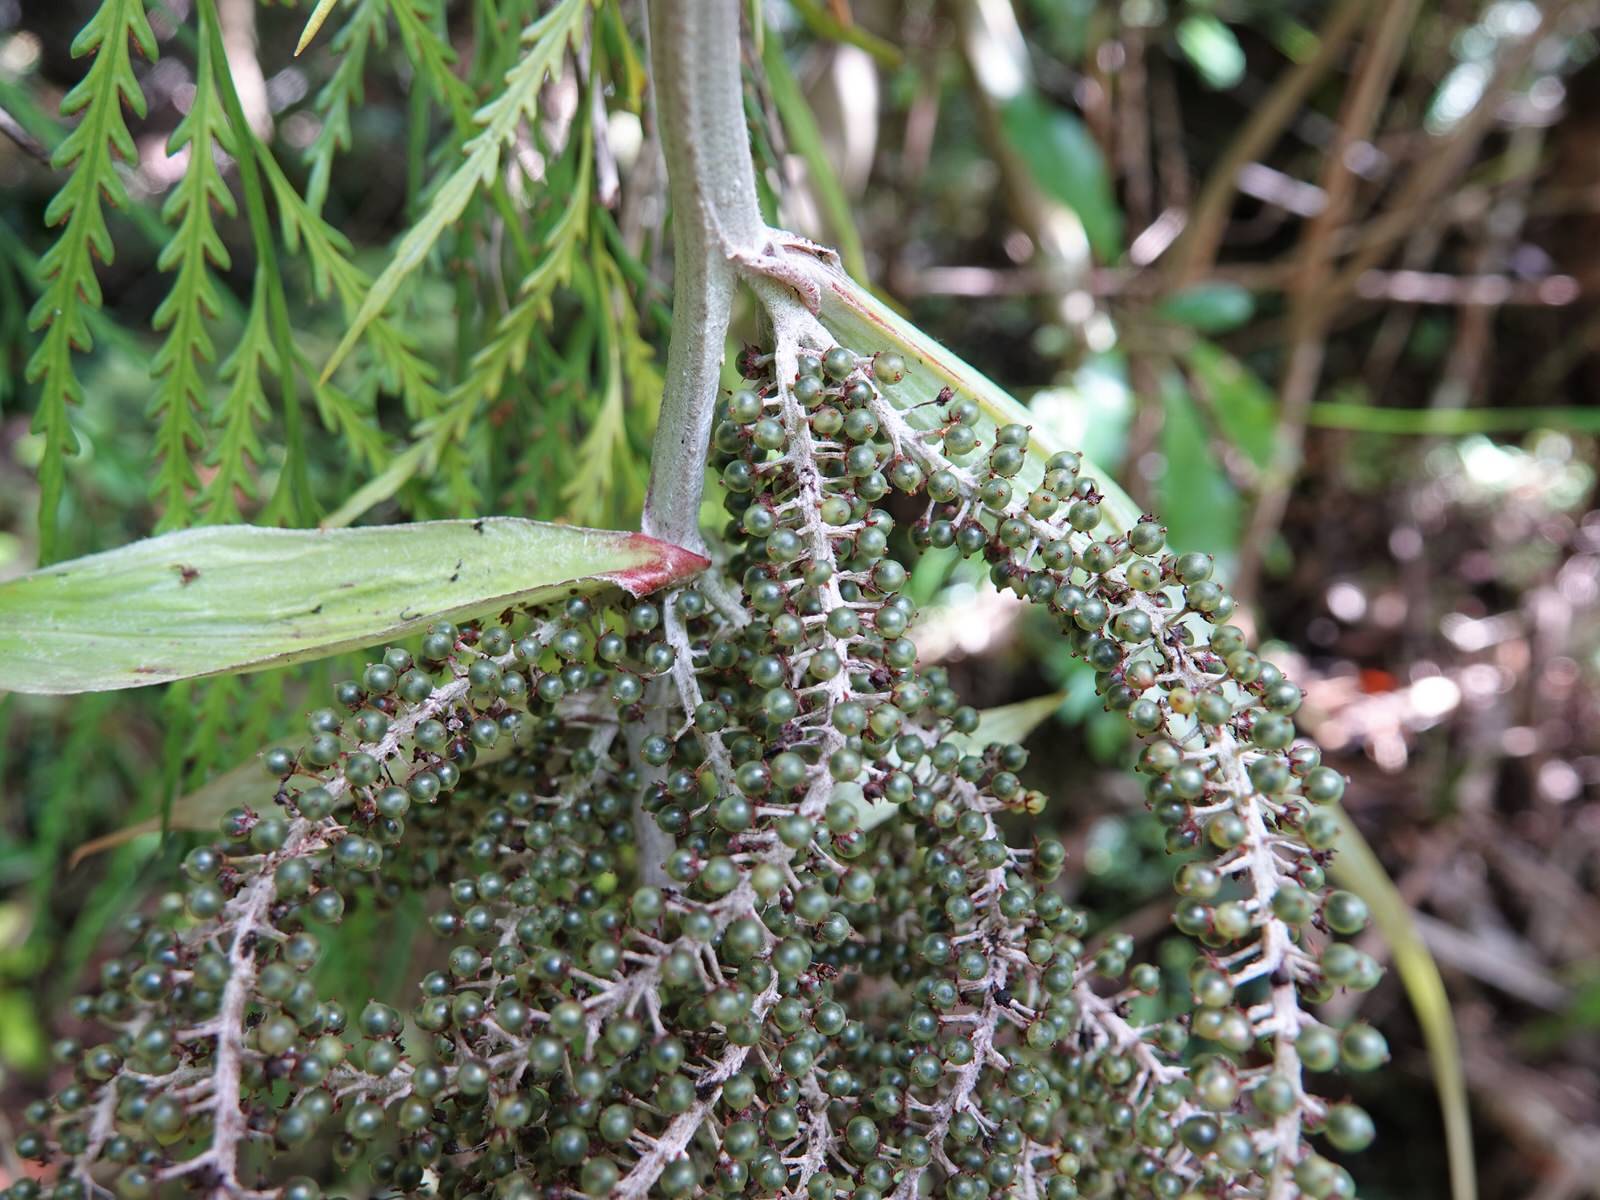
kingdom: Plantae
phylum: Tracheophyta
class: Liliopsida
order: Asparagales
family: Asteliaceae
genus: Astelia
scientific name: Astelia solandri
